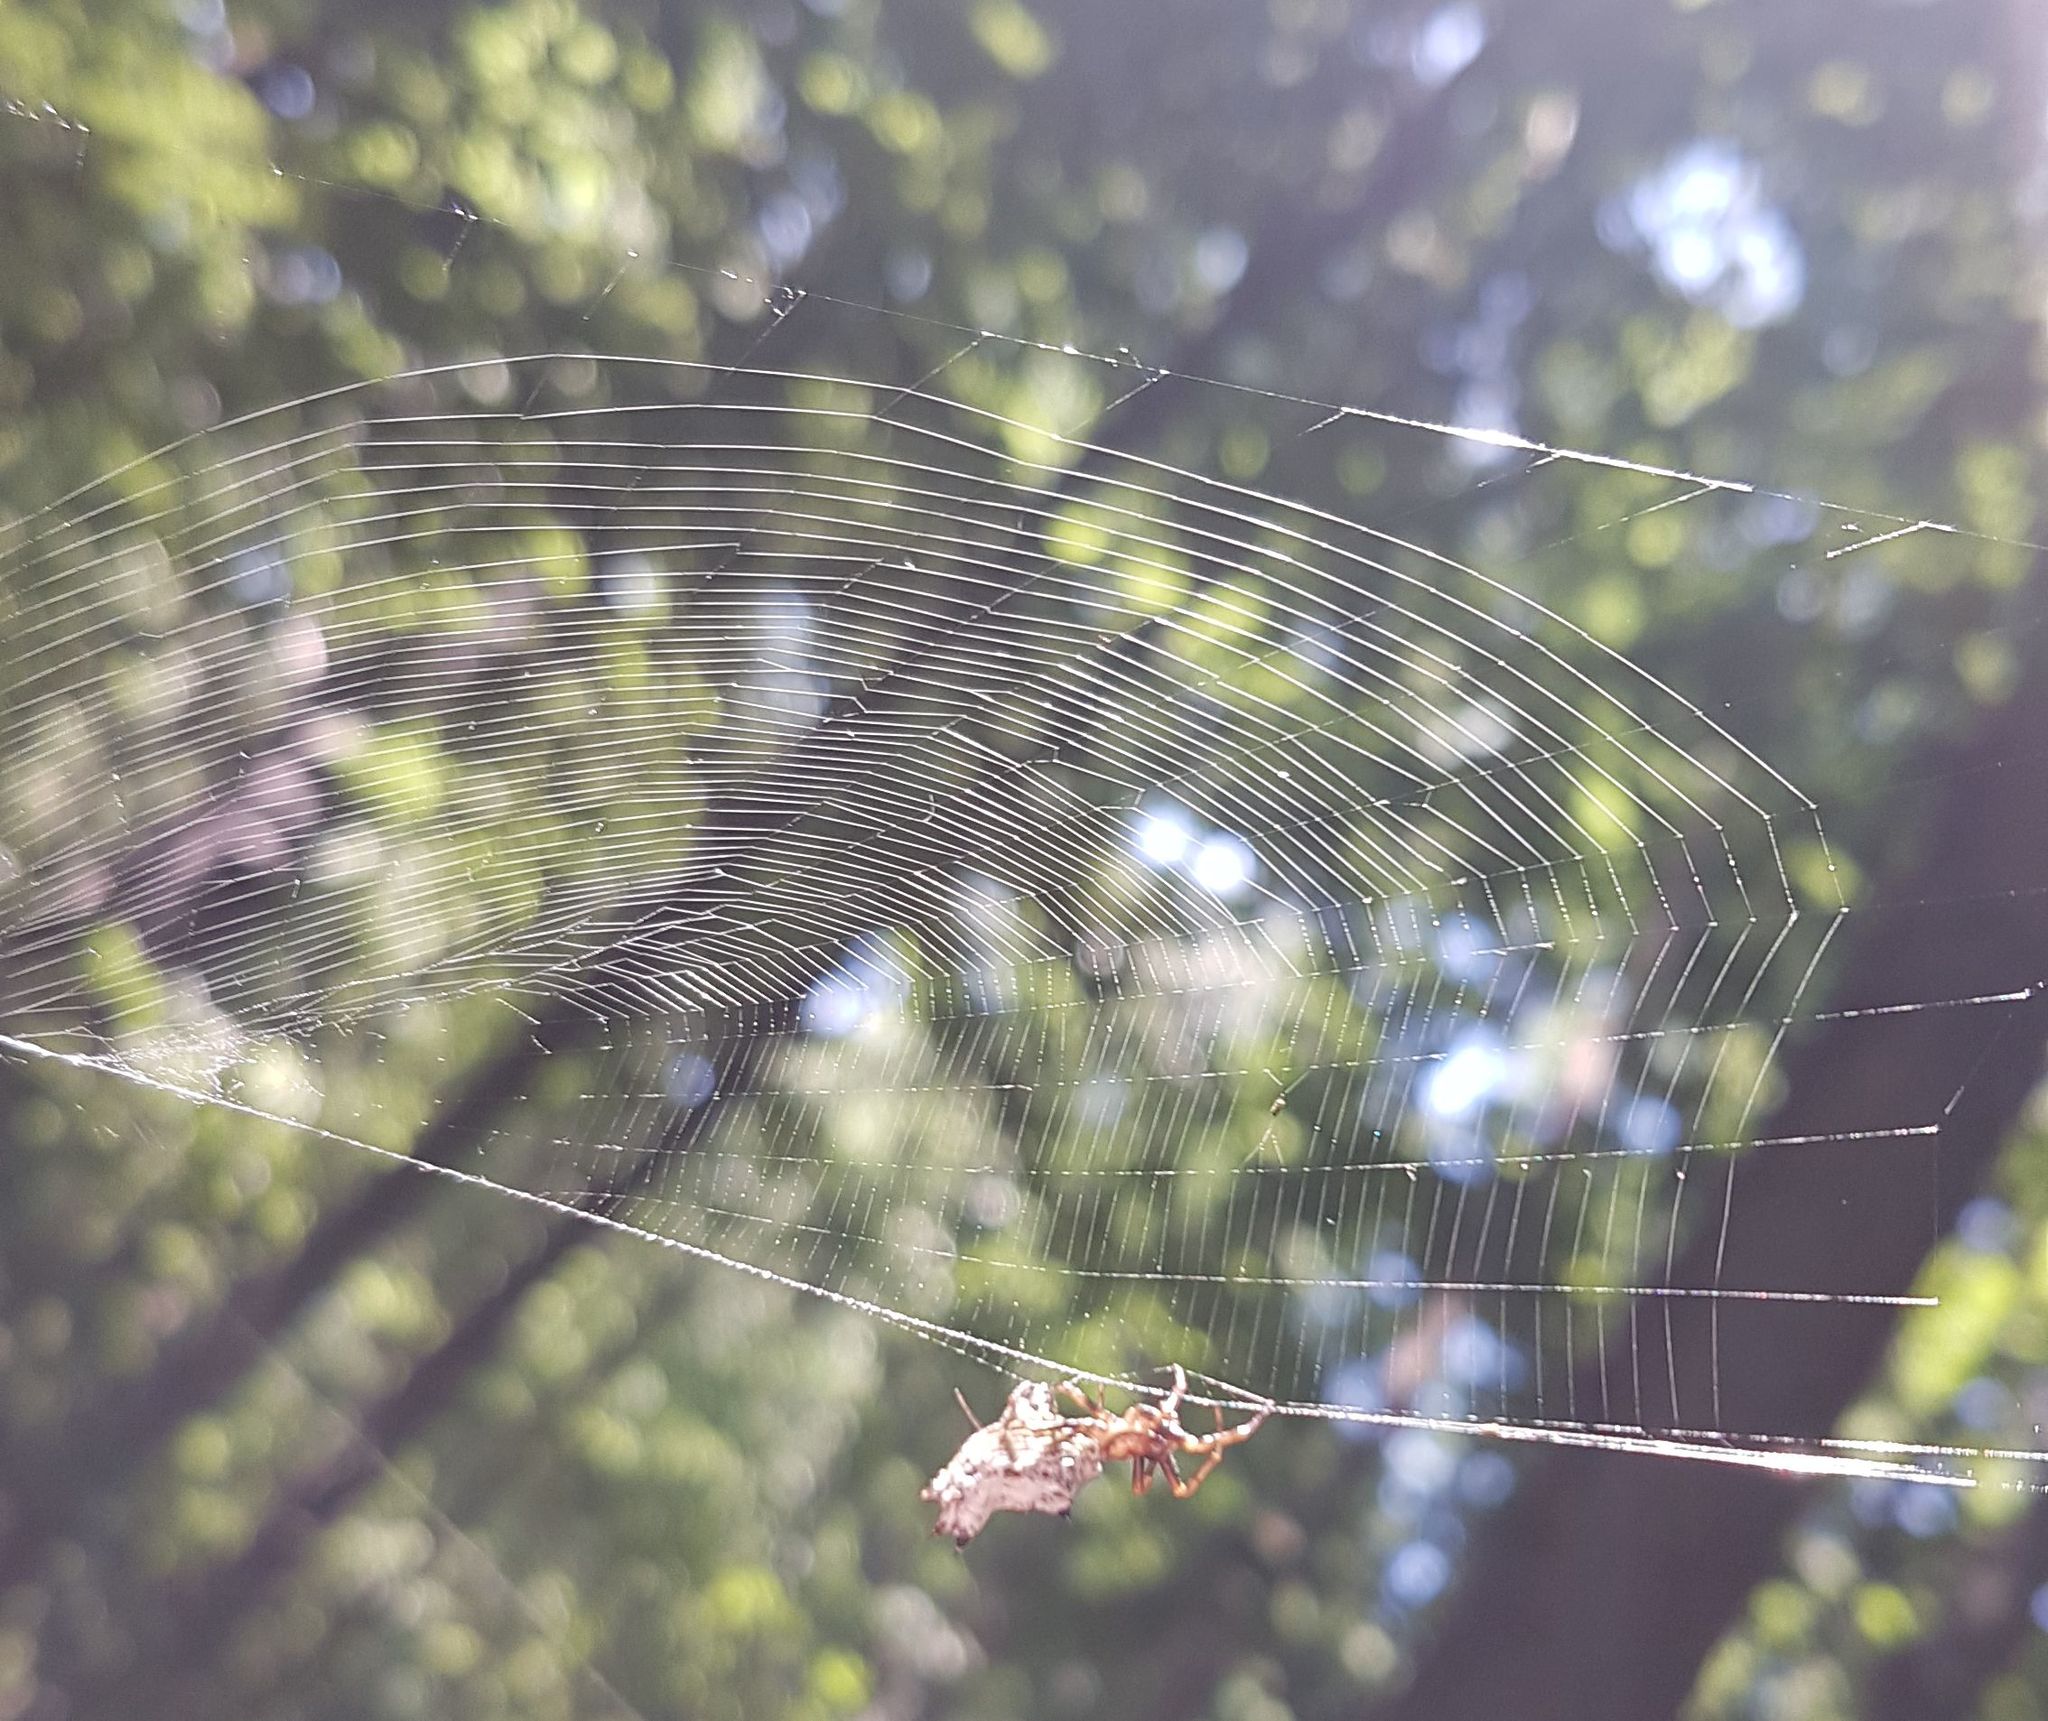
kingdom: Animalia
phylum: Arthropoda
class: Arachnida
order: Araneae
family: Araneidae
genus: Micrathena
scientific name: Micrathena gracilis
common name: Orb weavers
